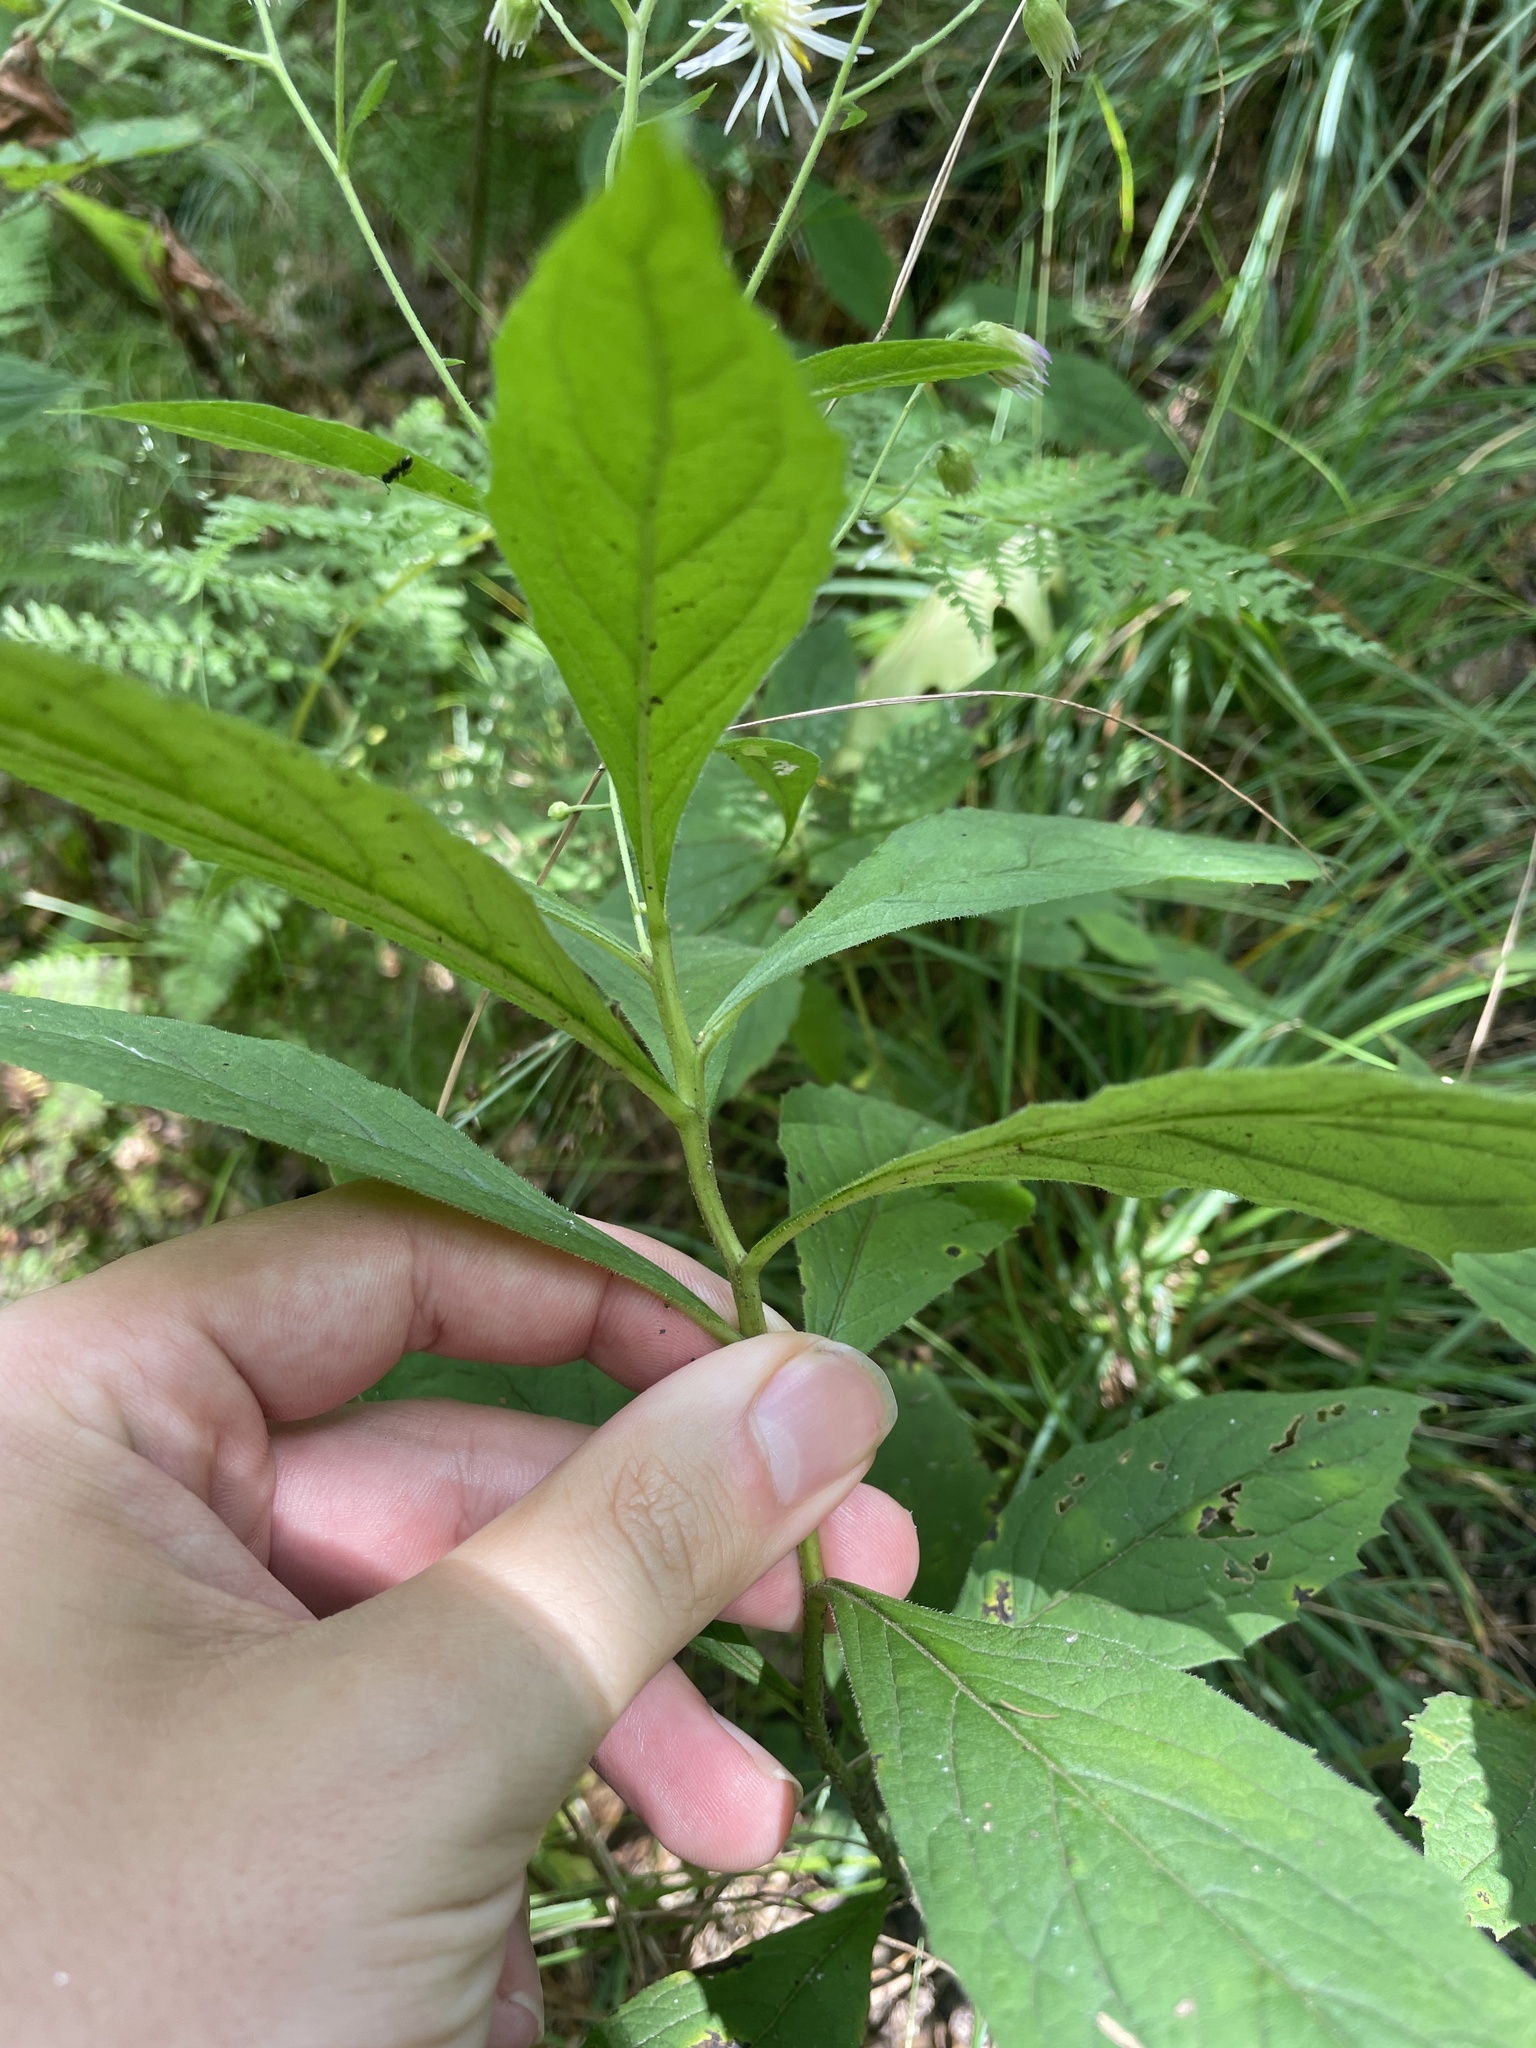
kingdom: Plantae
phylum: Tracheophyta
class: Magnoliopsida
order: Asterales
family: Asteraceae
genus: Oclemena
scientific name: Oclemena acuminata
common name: Mountain aster
